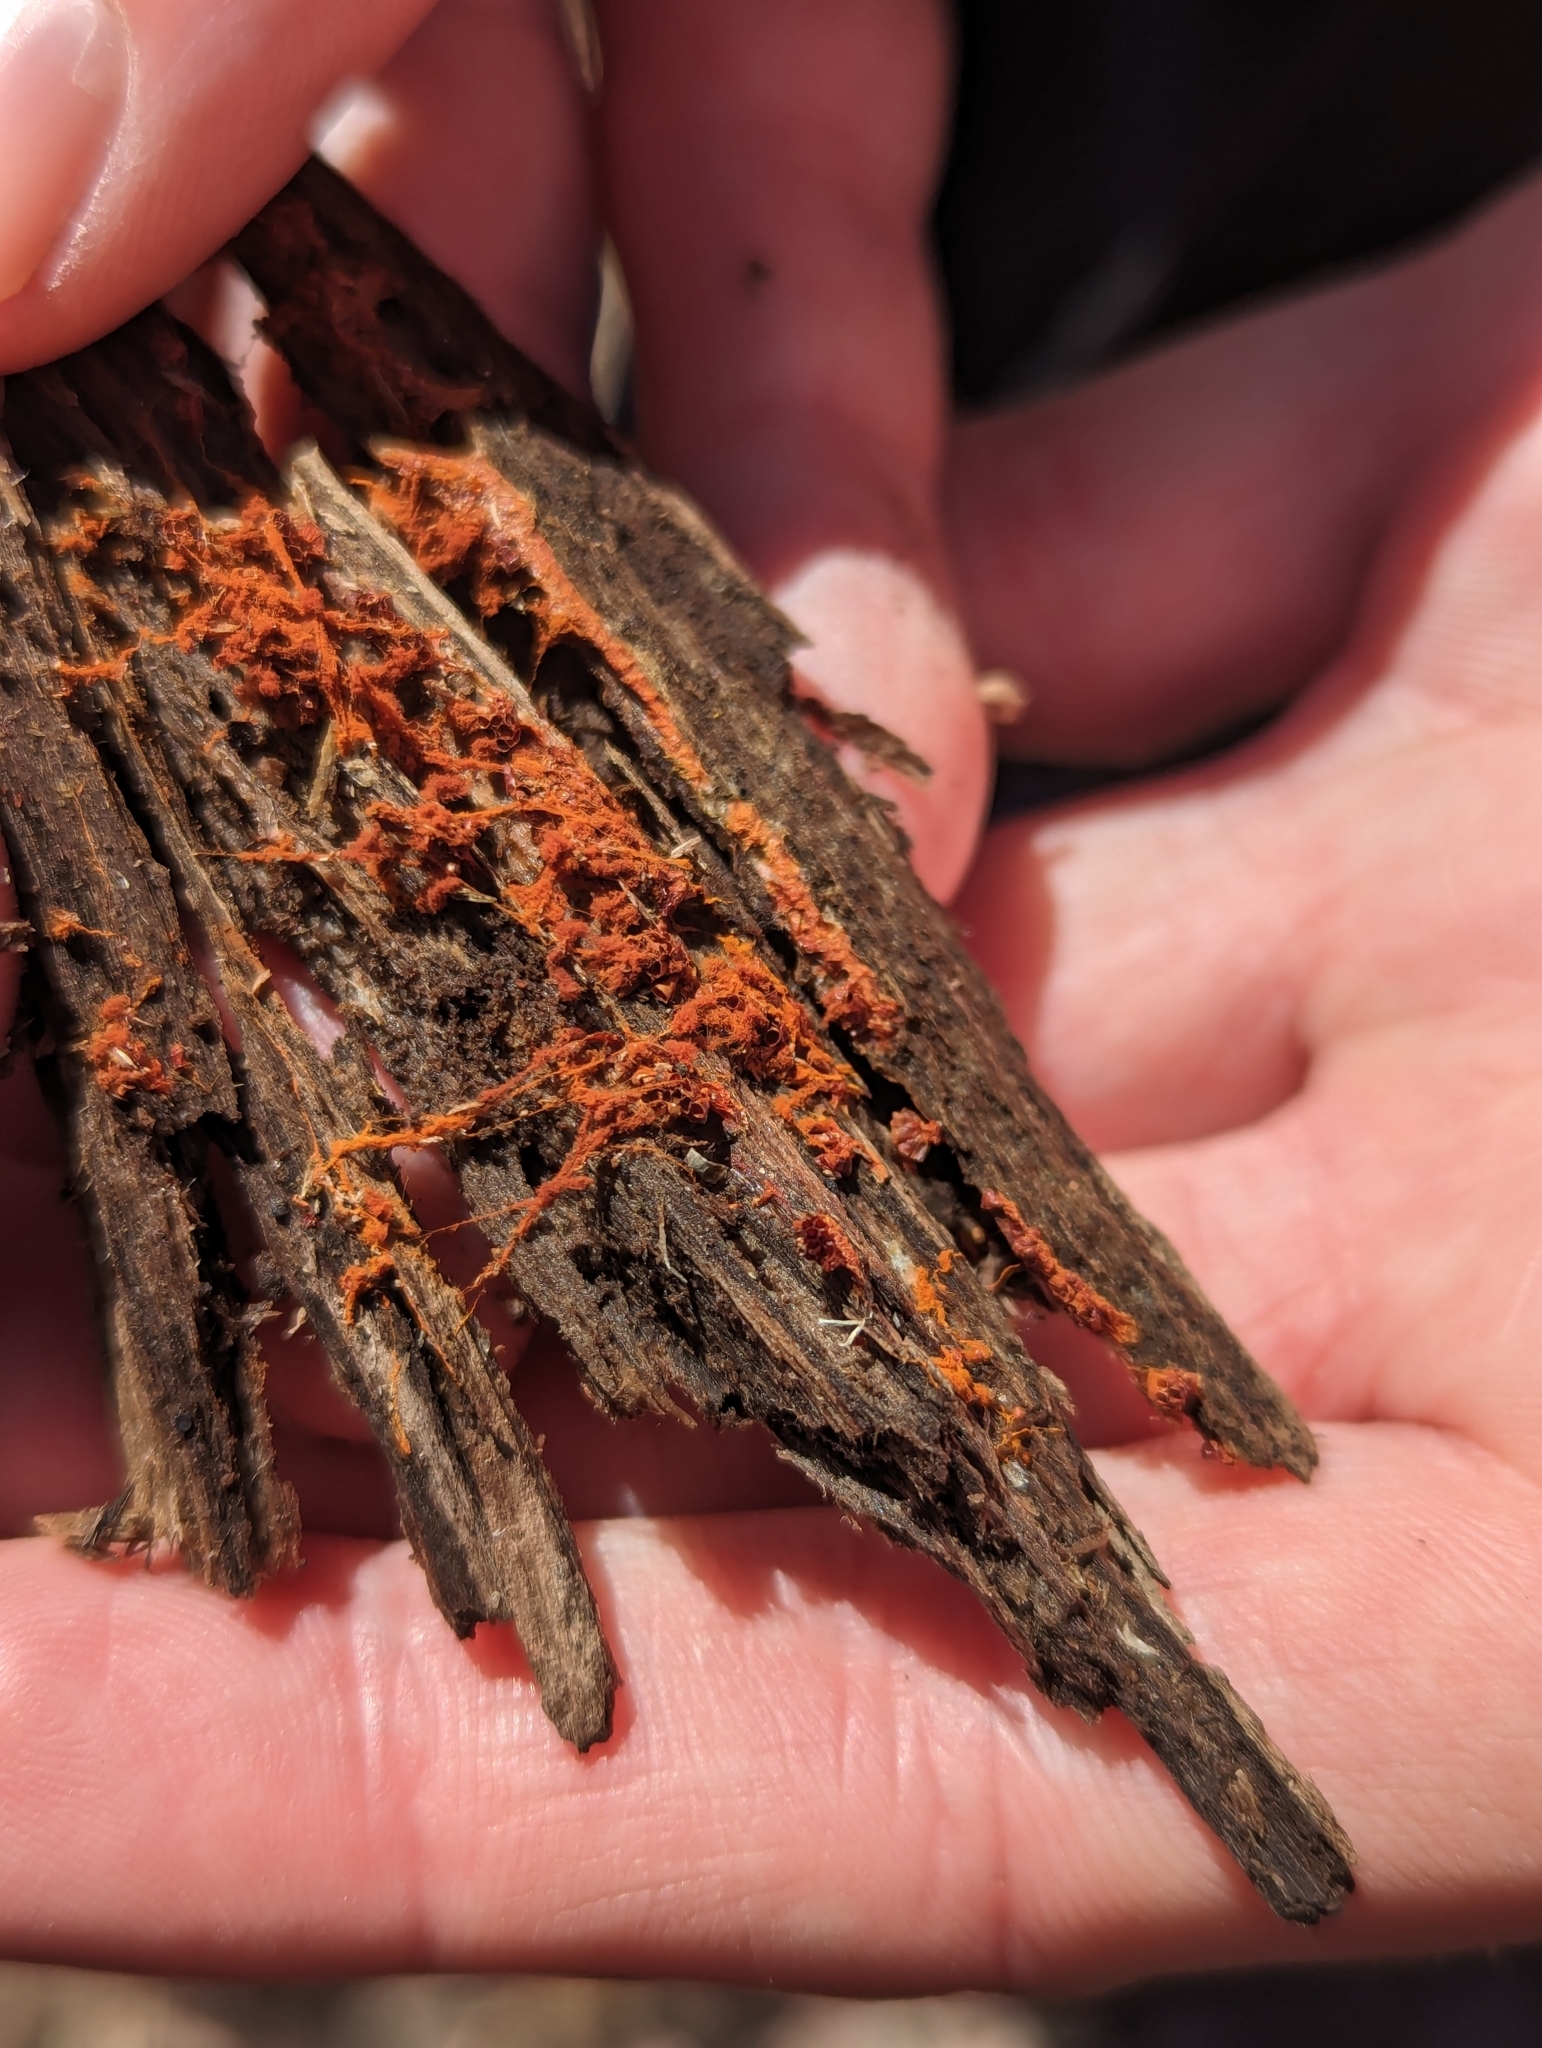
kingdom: Protozoa
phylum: Mycetozoa
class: Myxomycetes
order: Trichiales
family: Trichiaceae
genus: Metatrichia
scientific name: Metatrichia vesparia
